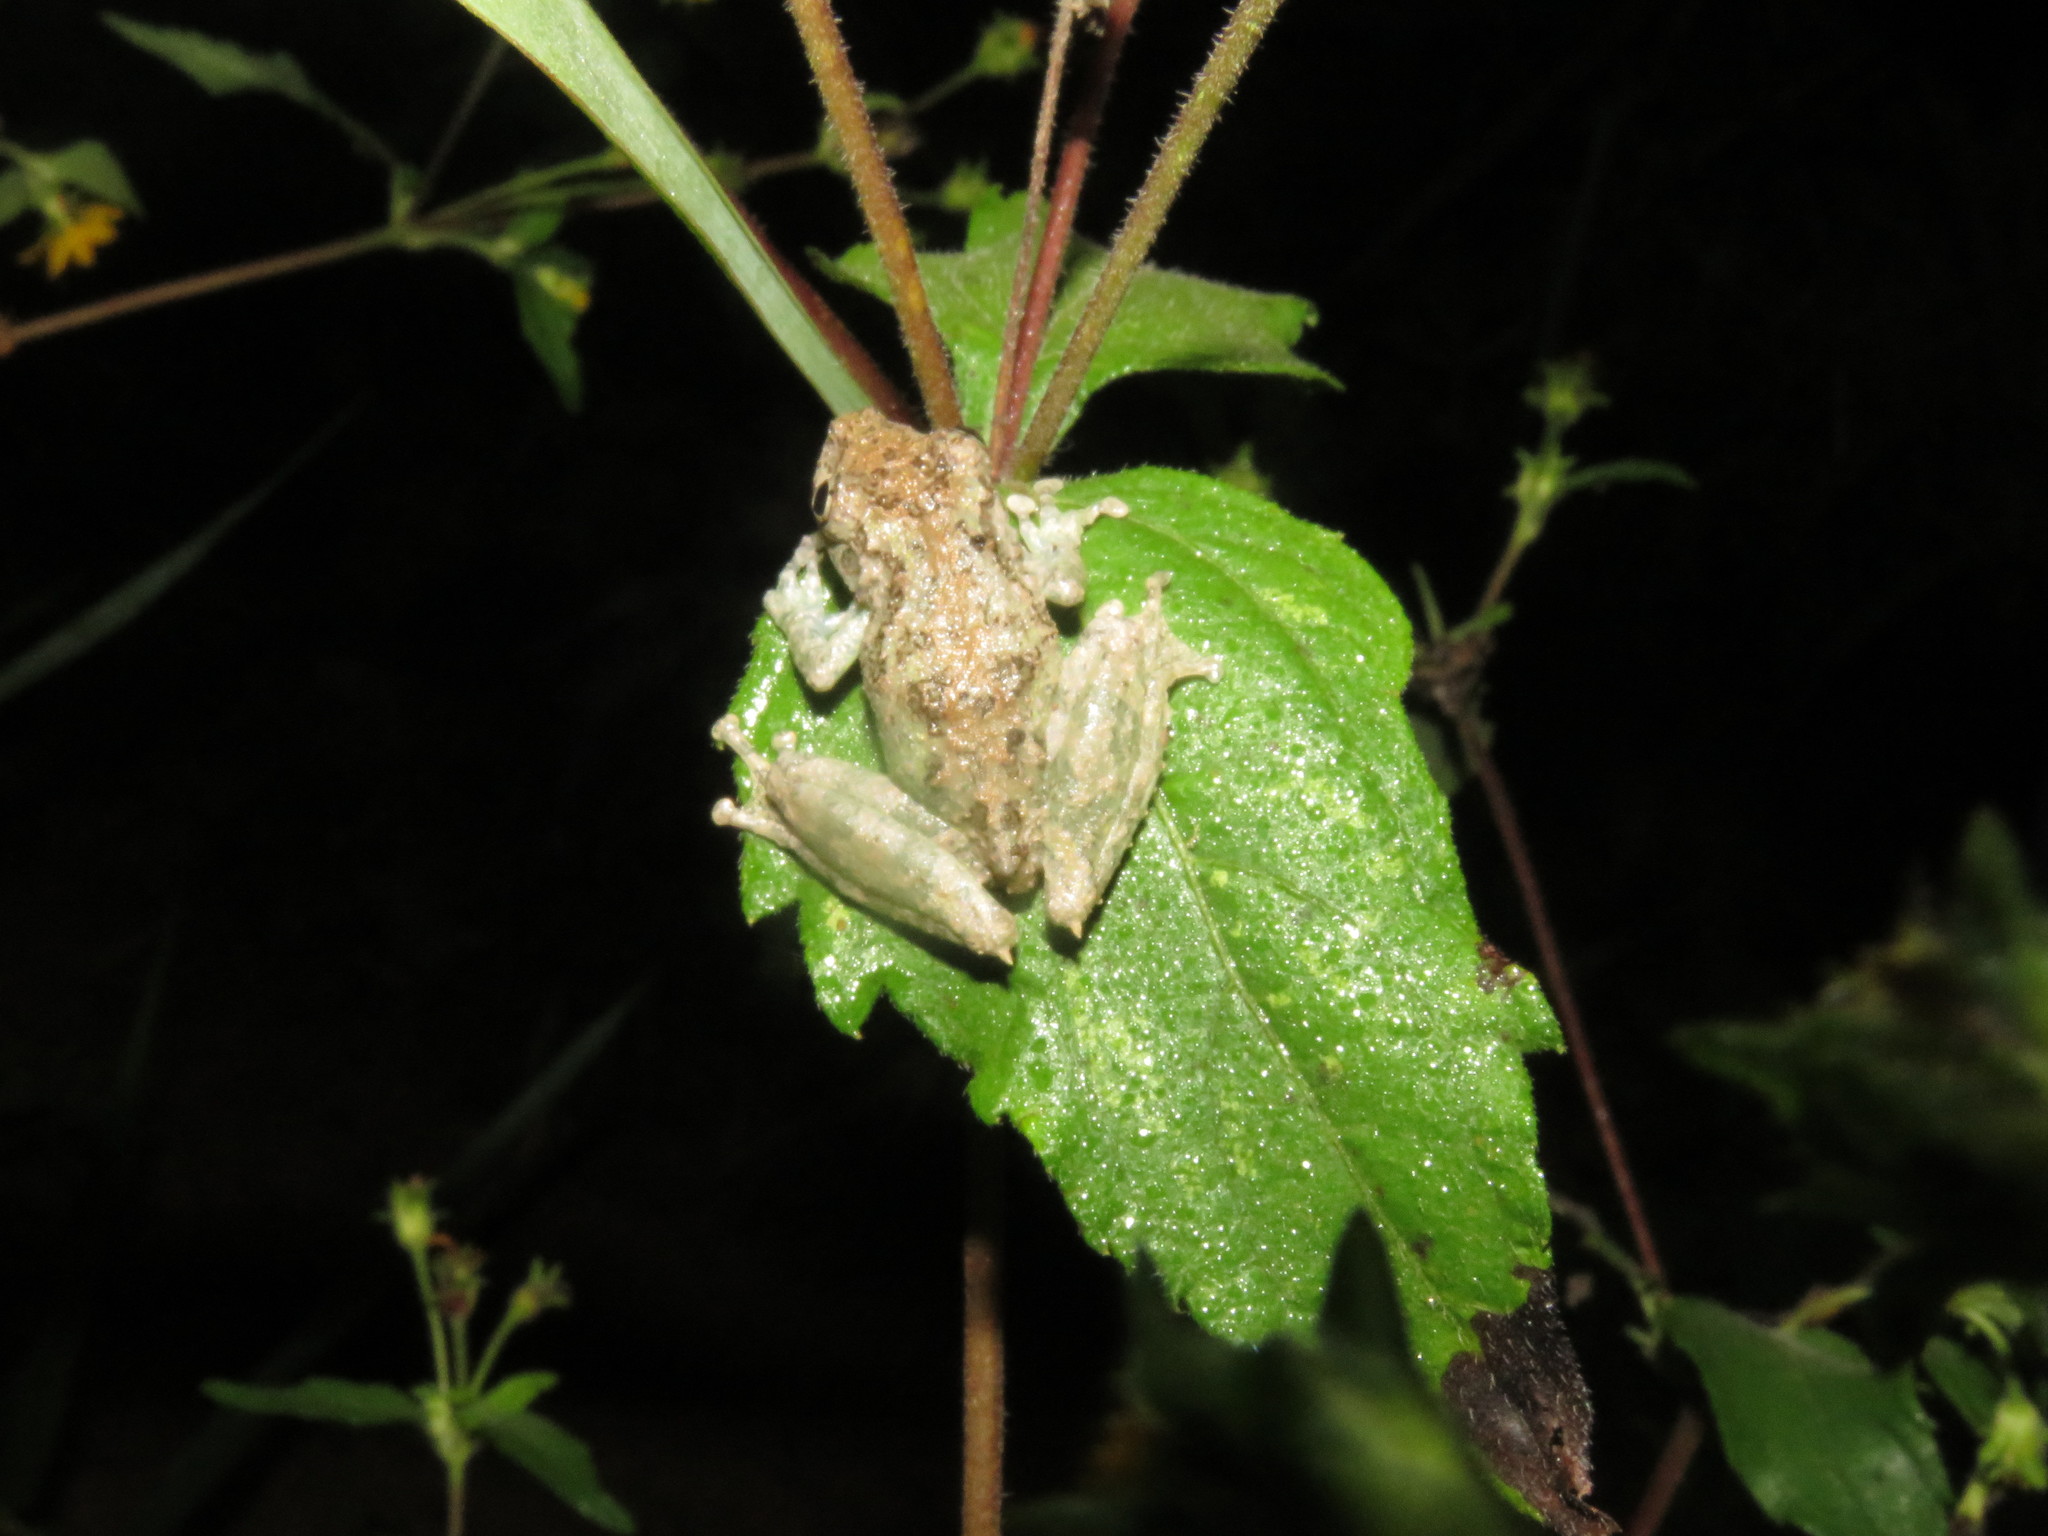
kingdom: Animalia
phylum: Chordata
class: Amphibia
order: Anura
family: Hylidae
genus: Scinax
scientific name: Scinax garbei
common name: Eirunepe snouted treefrog
